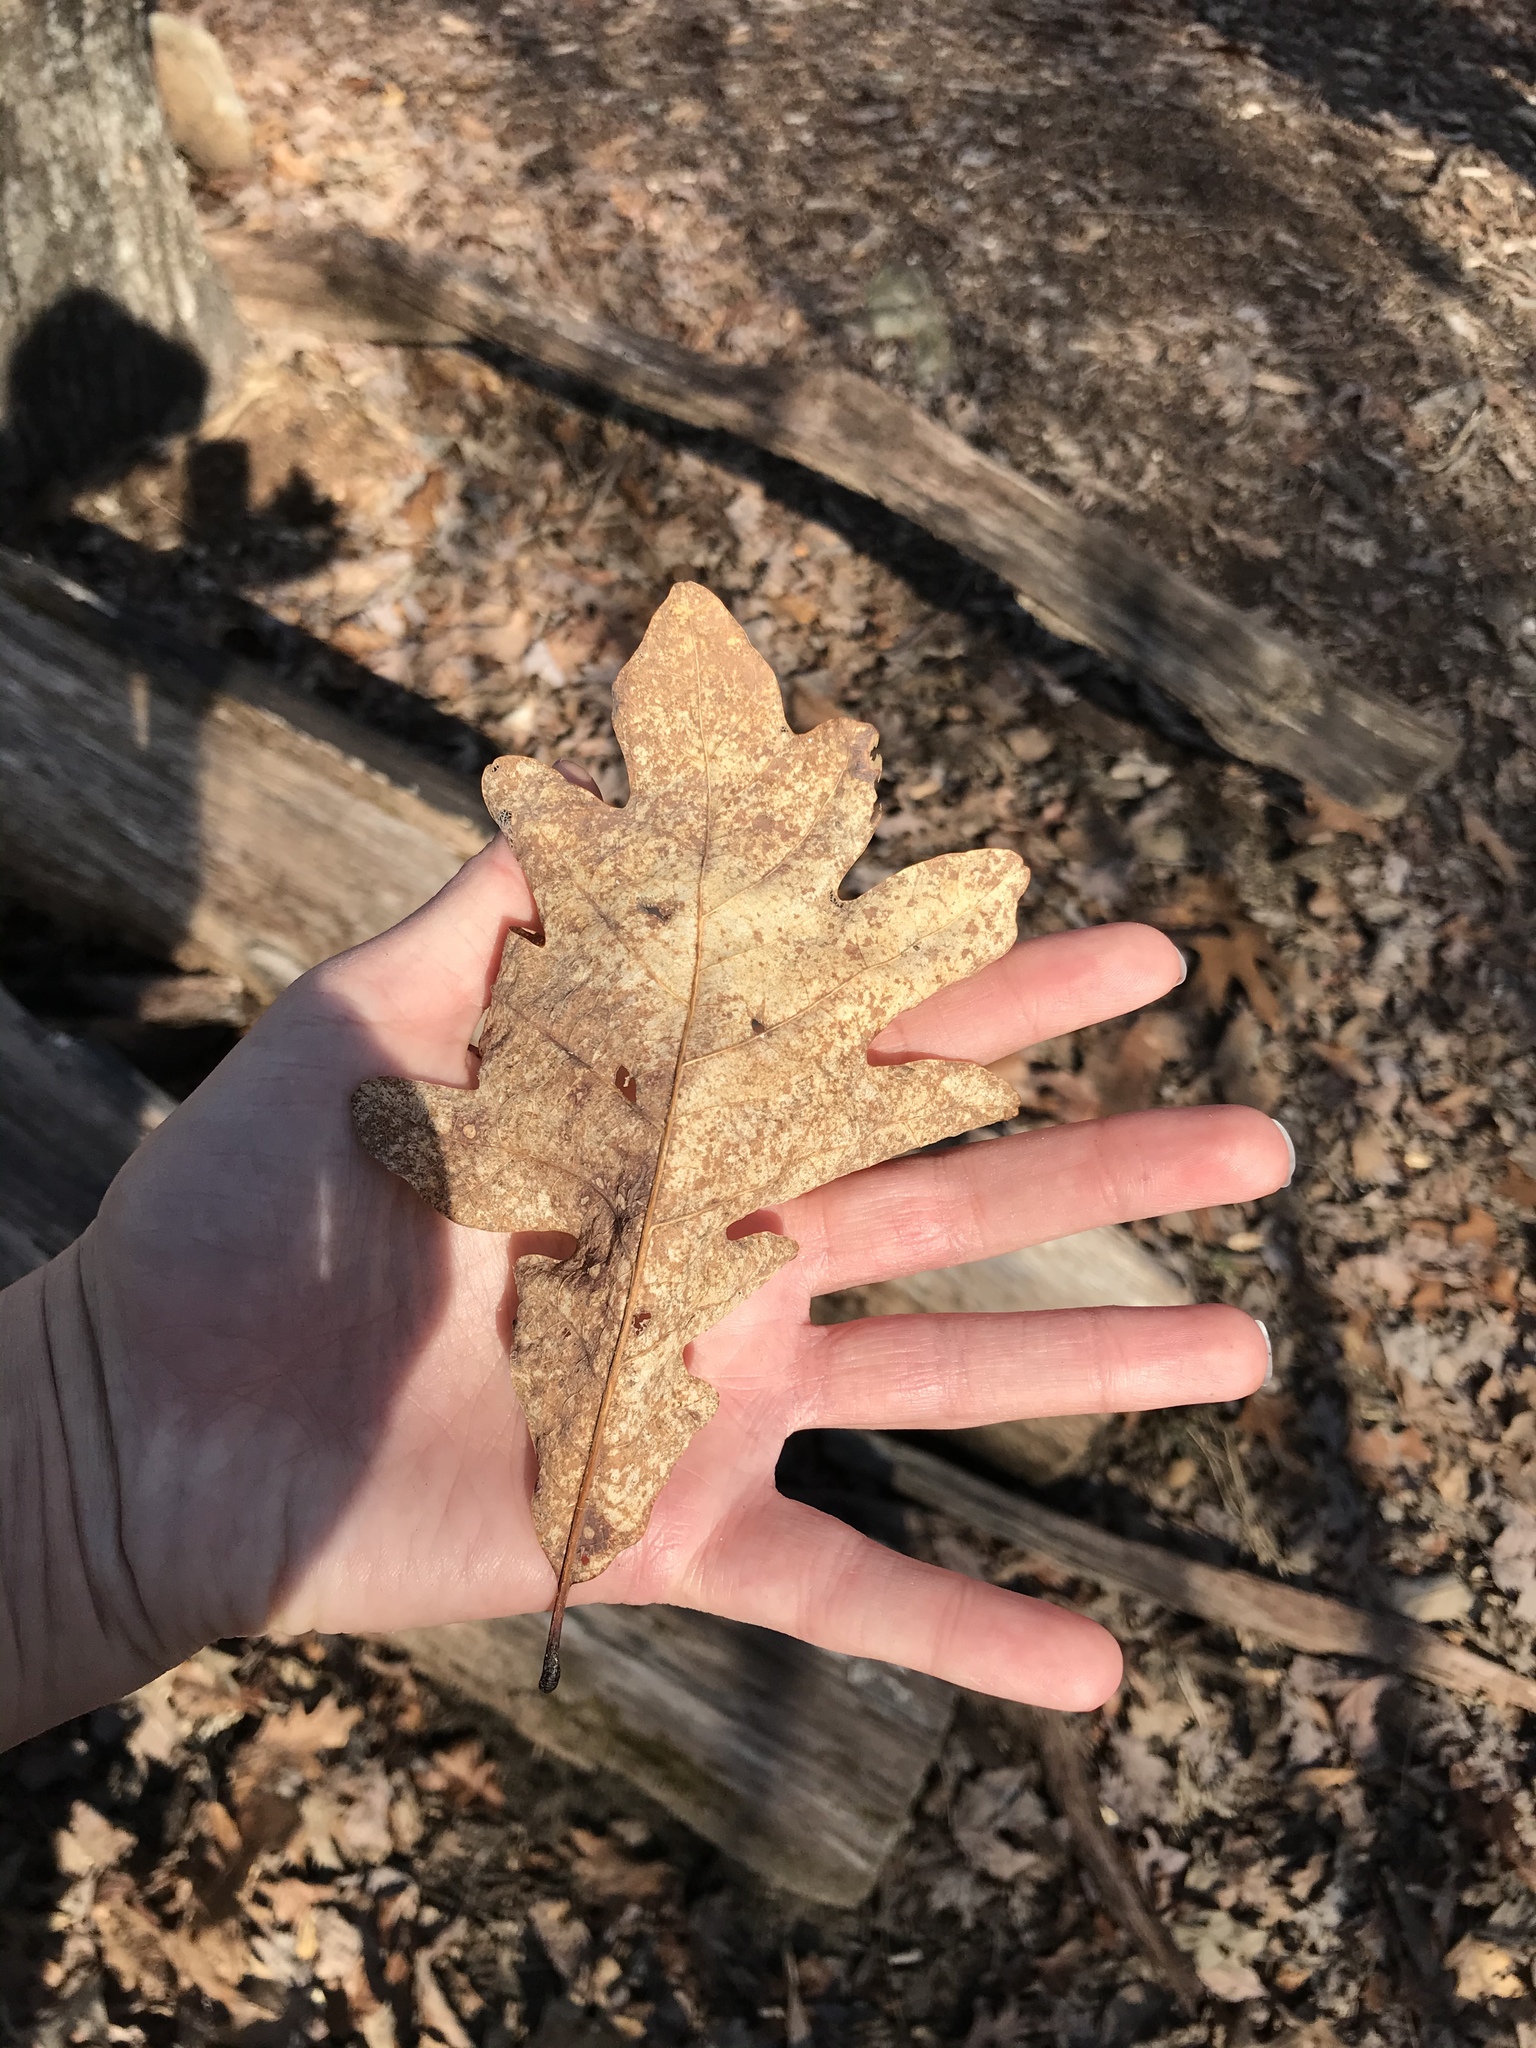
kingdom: Plantae
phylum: Tracheophyta
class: Magnoliopsida
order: Fagales
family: Fagaceae
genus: Quercus
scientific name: Quercus alba
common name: White oak
